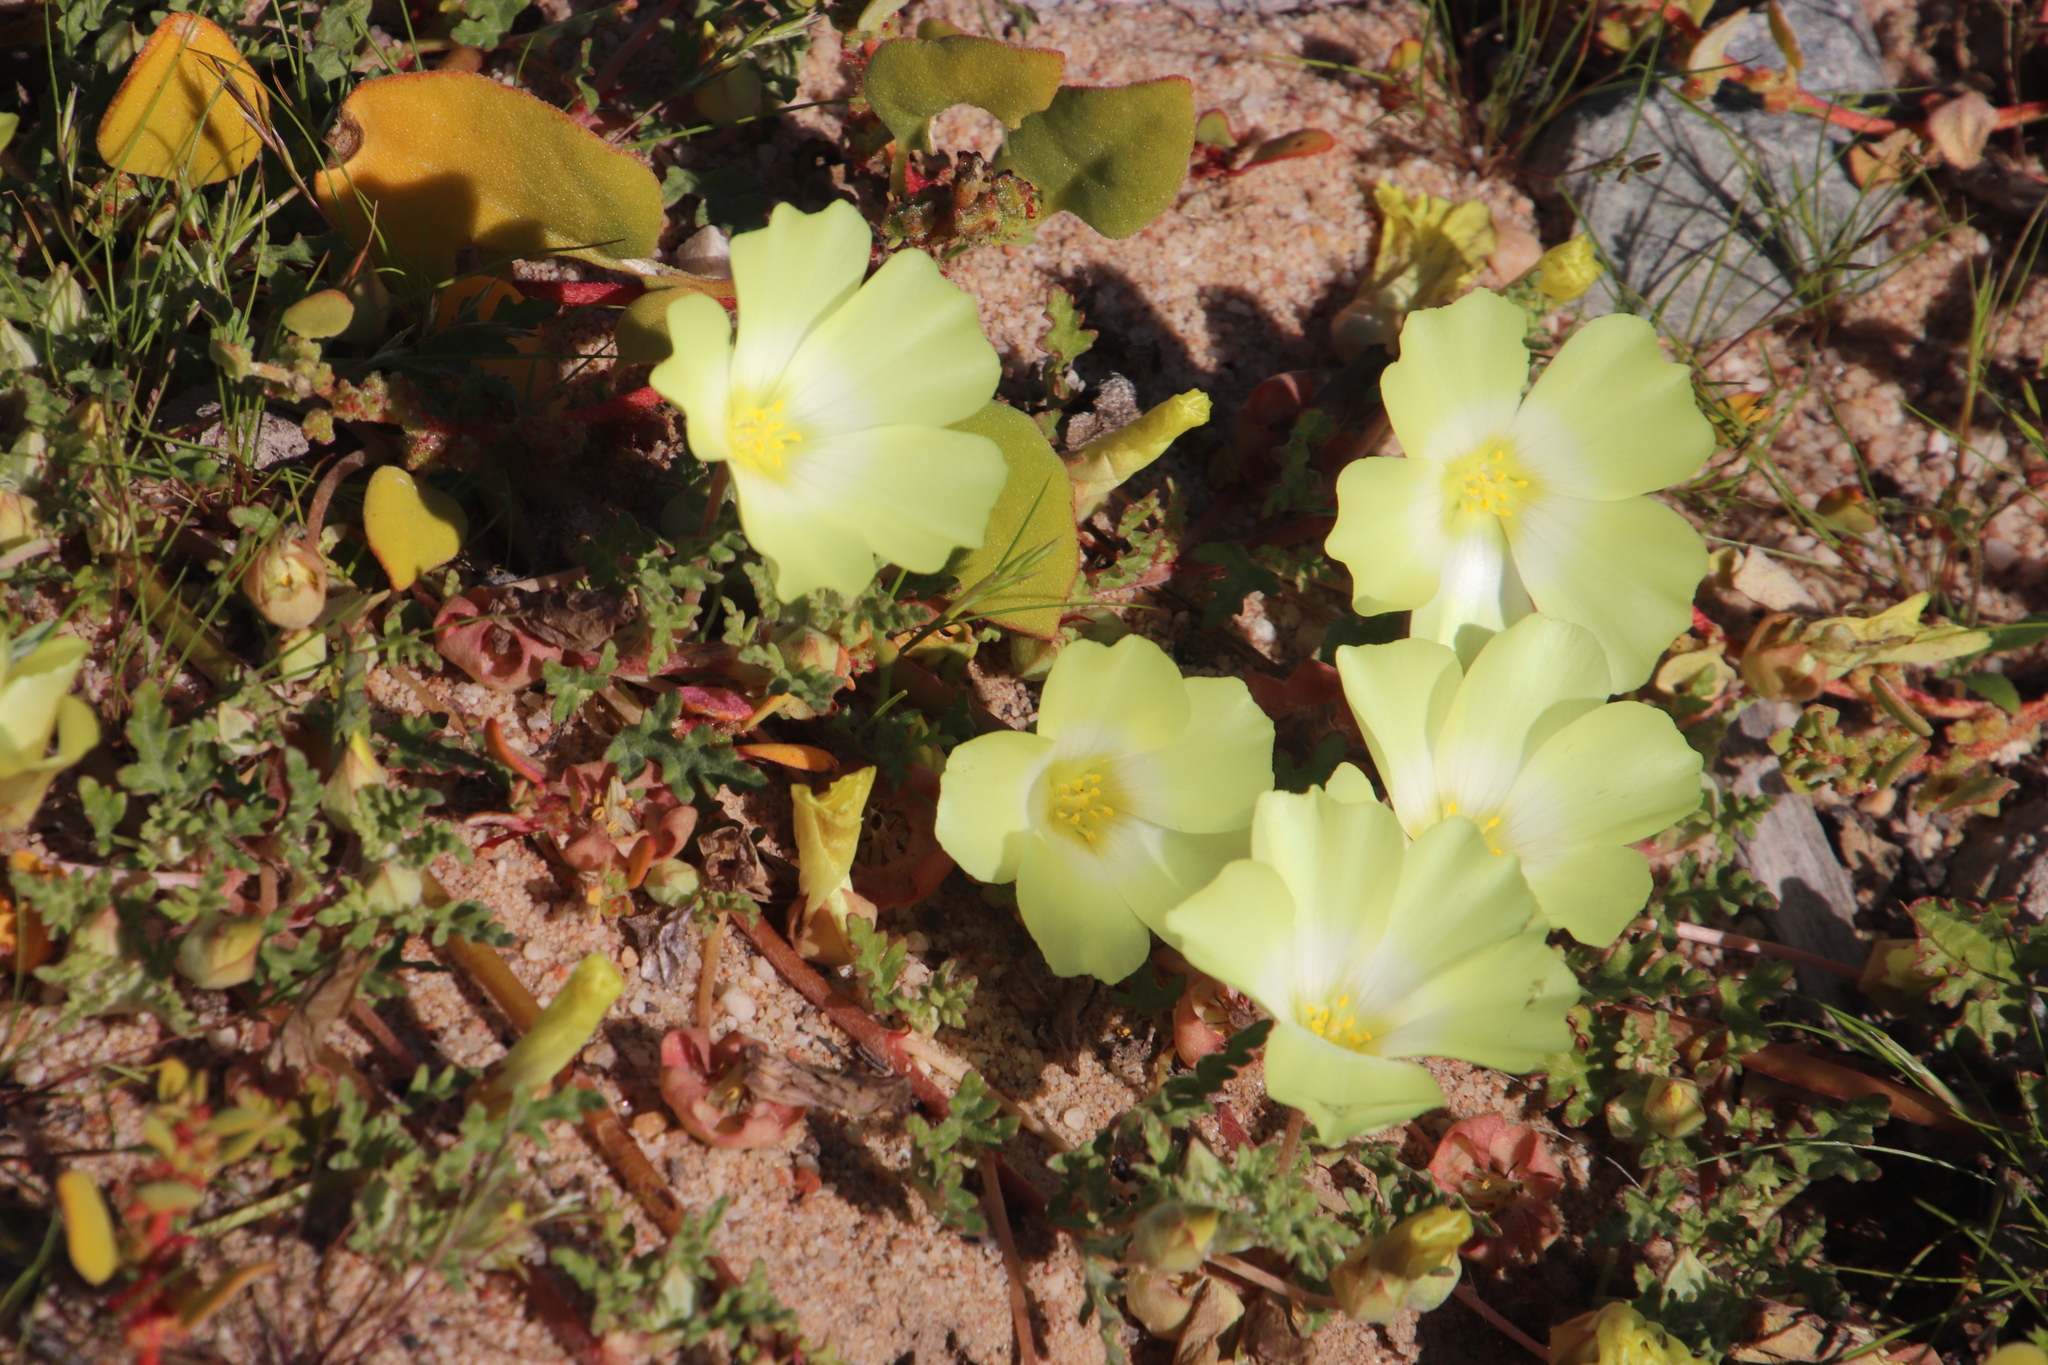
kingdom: Plantae
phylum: Tracheophyta
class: Magnoliopsida
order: Malvales
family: Neuradaceae
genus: Grielum
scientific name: Grielum humifusum
